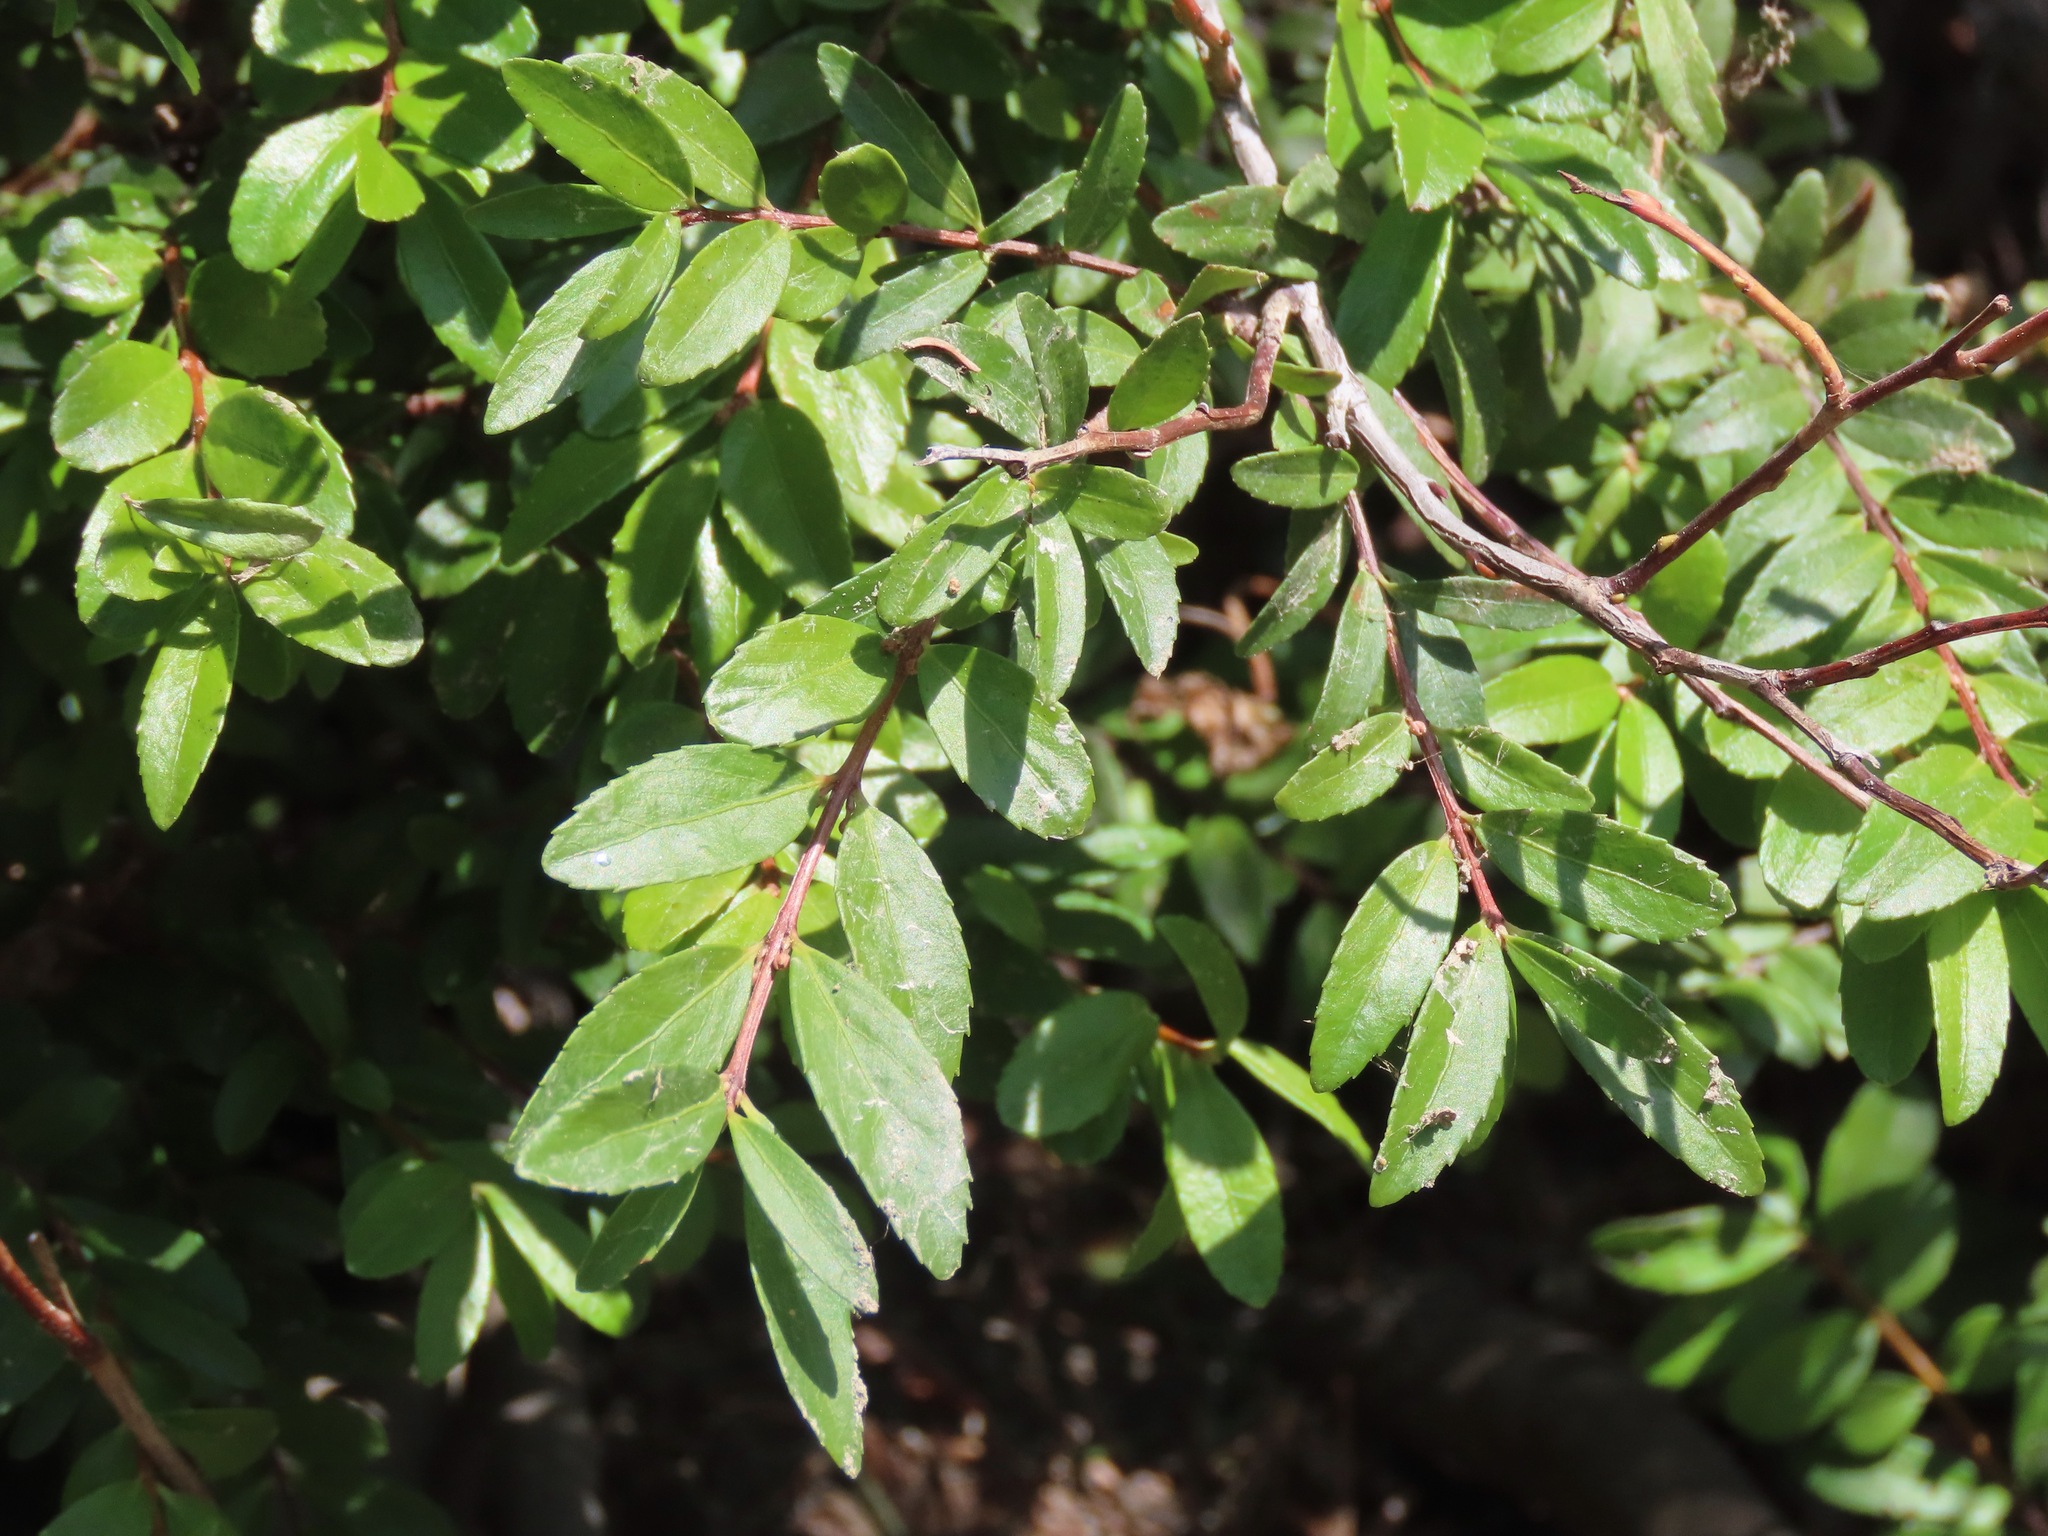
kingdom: Plantae
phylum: Tracheophyta
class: Magnoliopsida
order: Celastrales
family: Celastraceae
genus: Paxistima
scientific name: Paxistima myrsinites
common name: Mountain-lover
